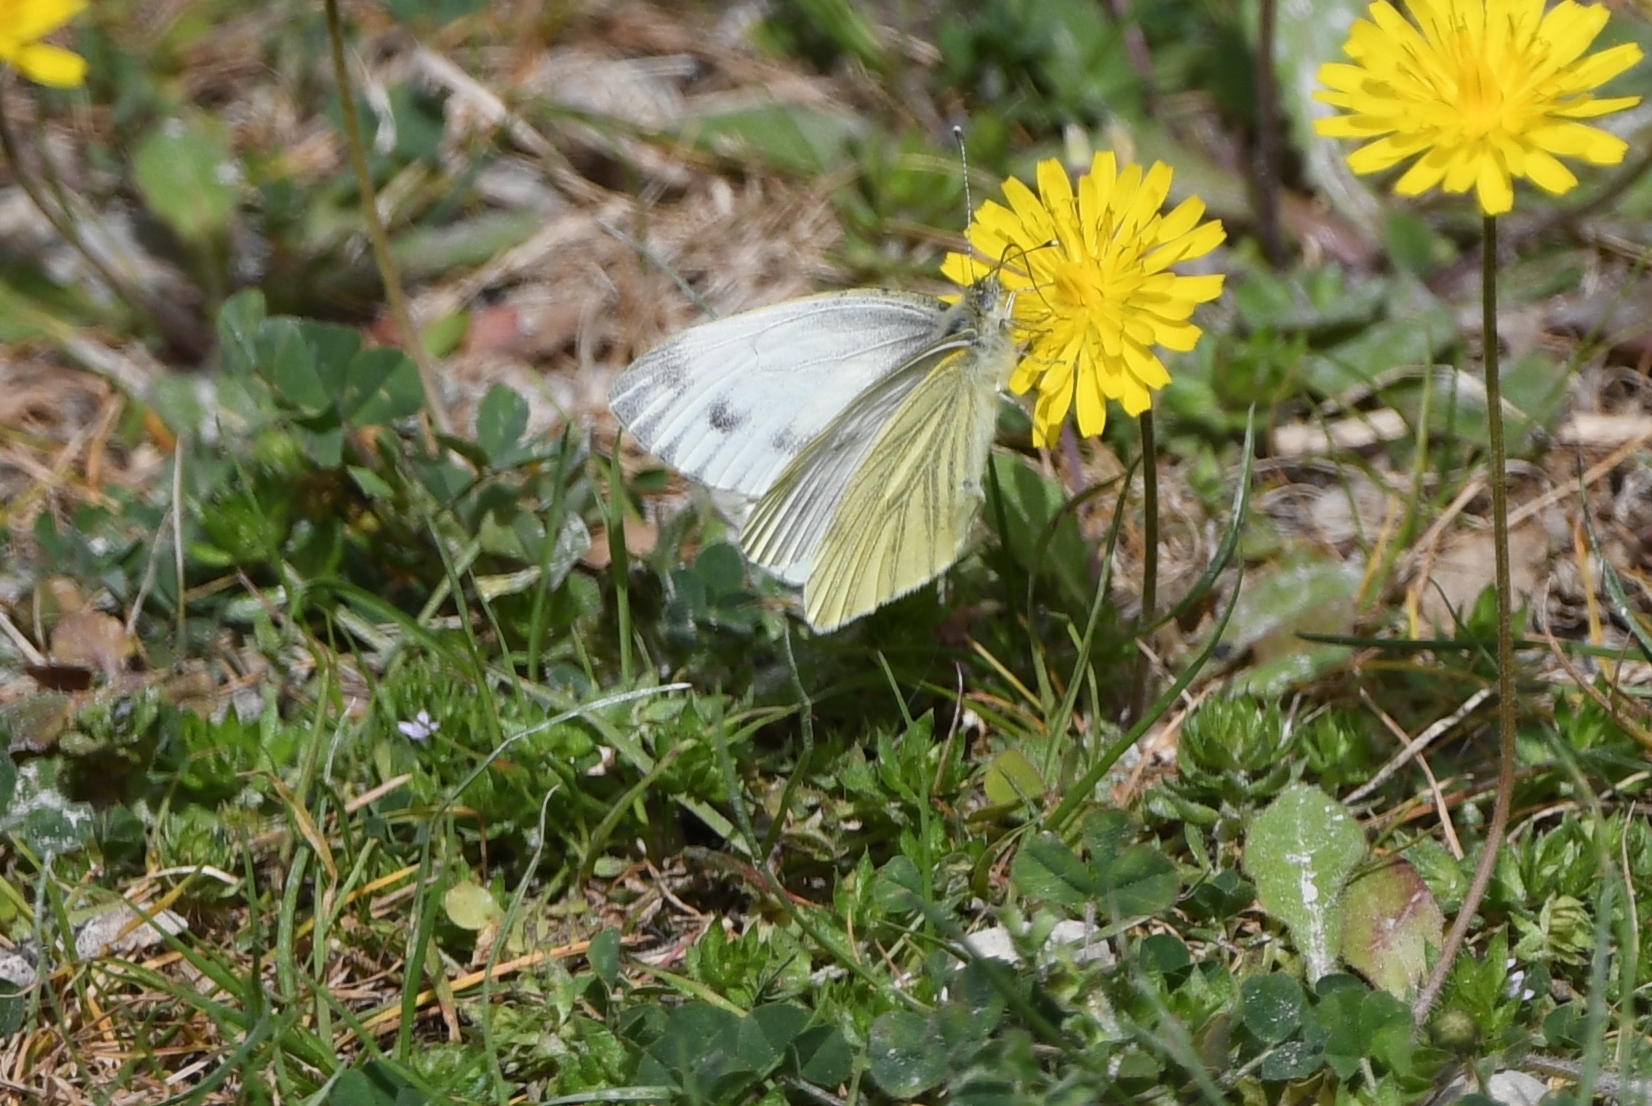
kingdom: Animalia
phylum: Arthropoda
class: Insecta
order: Lepidoptera
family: Pieridae
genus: Pieris
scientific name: Pieris napi
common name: Green-veined white
